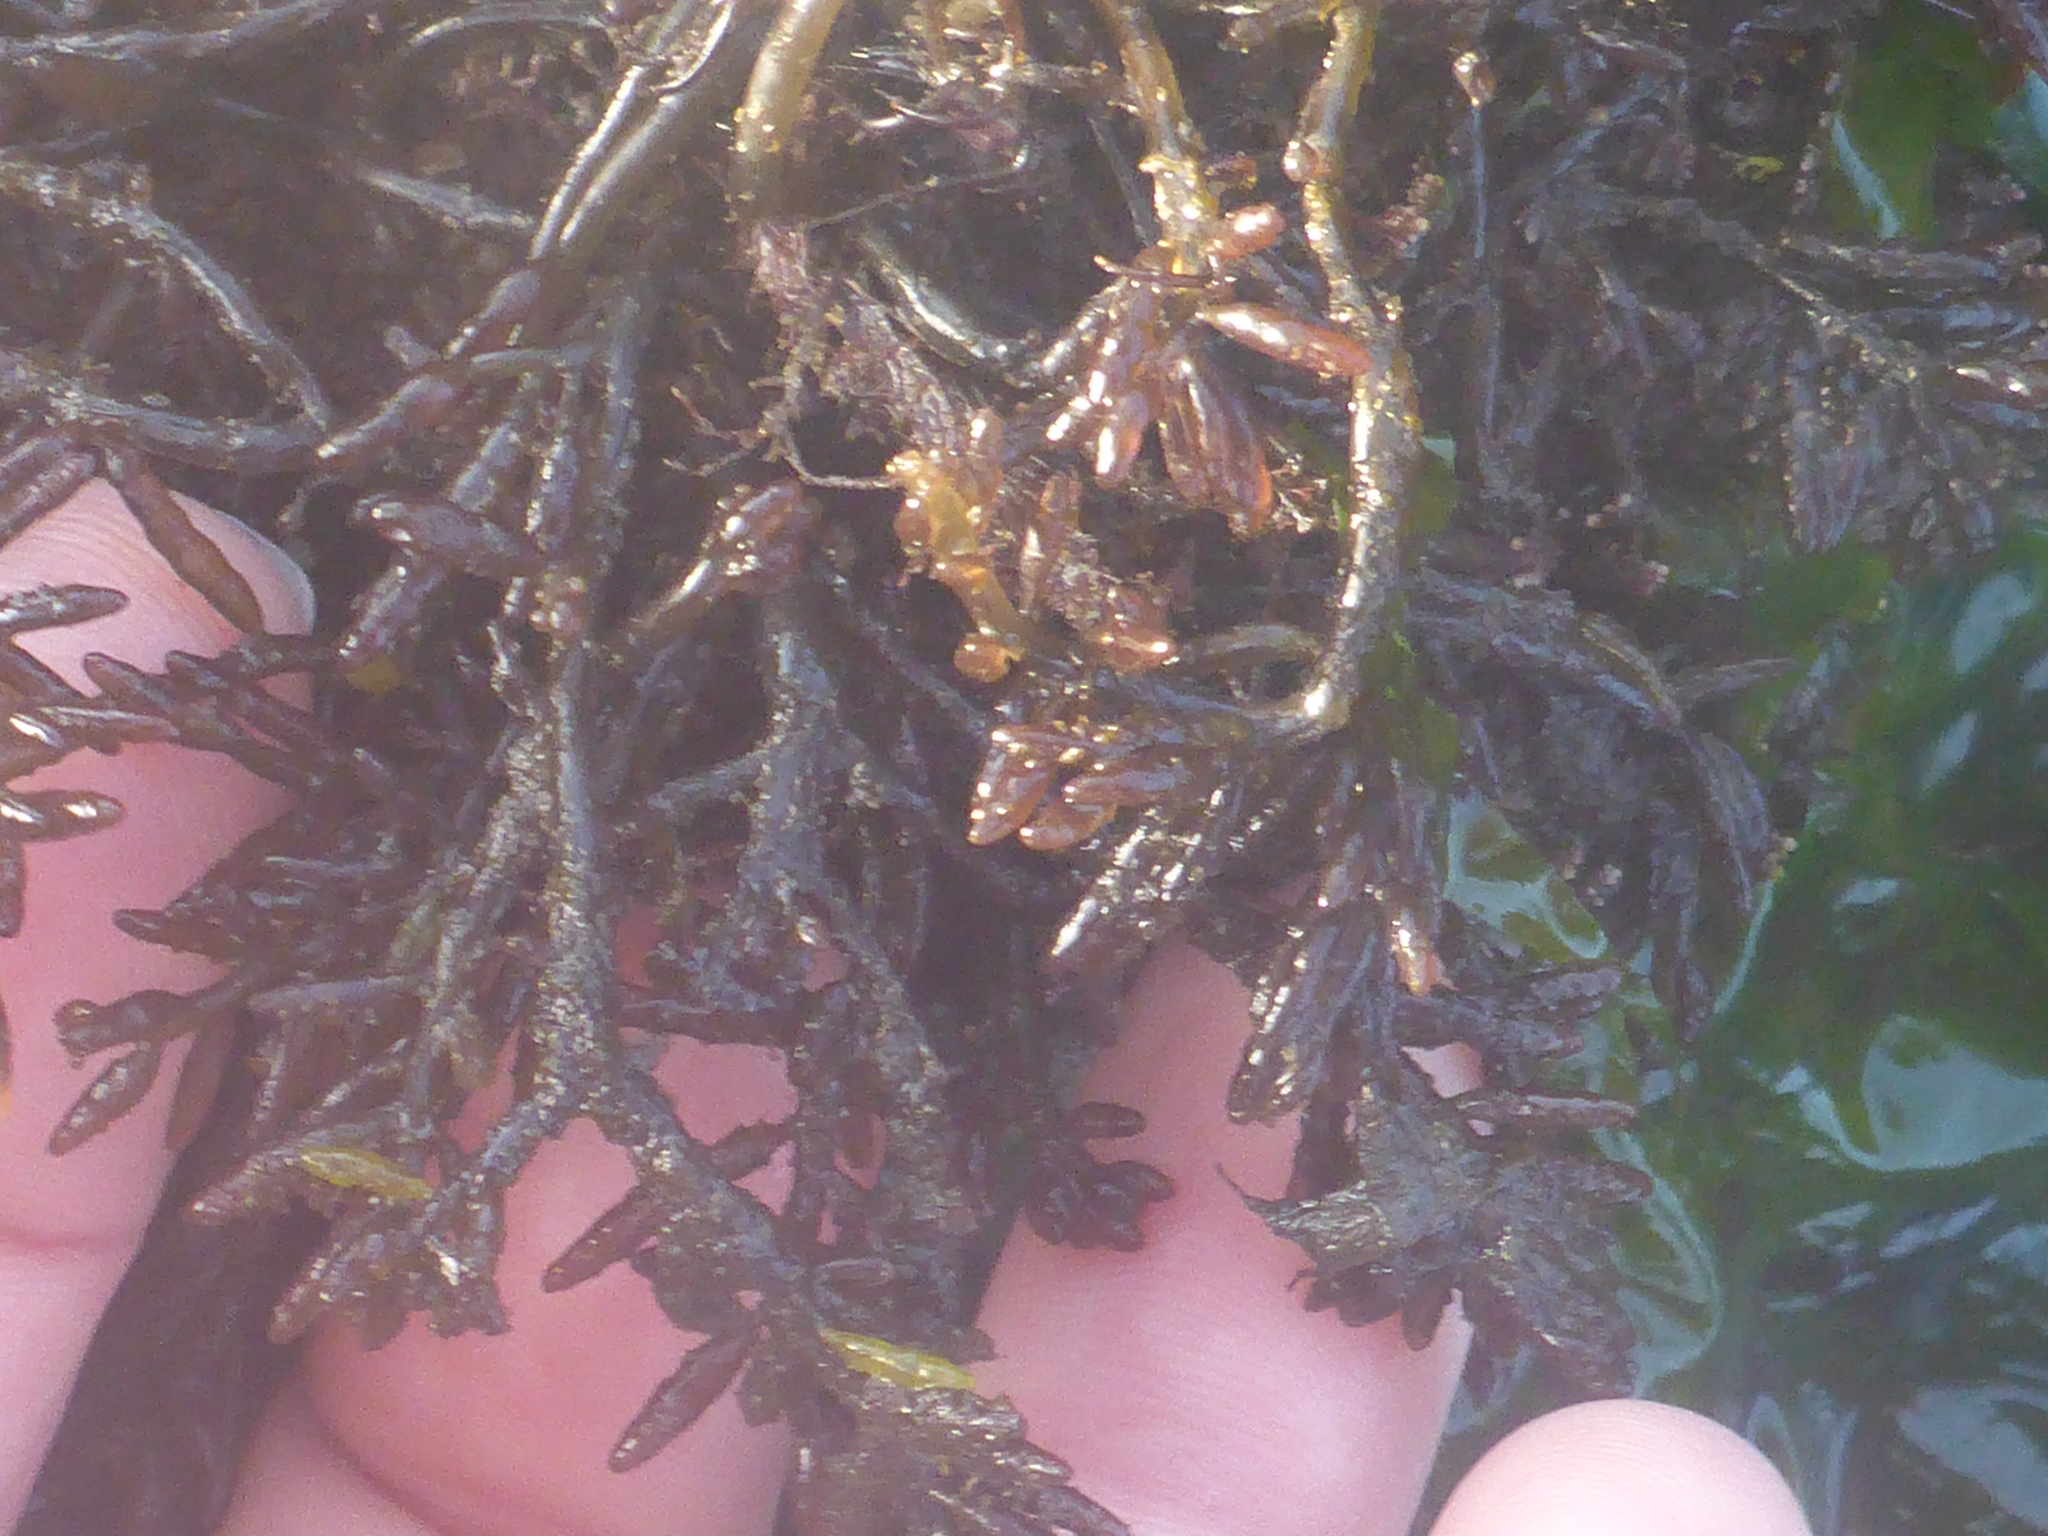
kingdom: Plantae
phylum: Rhodophyta
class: Florideophyceae
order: Rhodymeniales
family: Champiaceae
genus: Neogastroclonium
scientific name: Neogastroclonium subarticulatum
